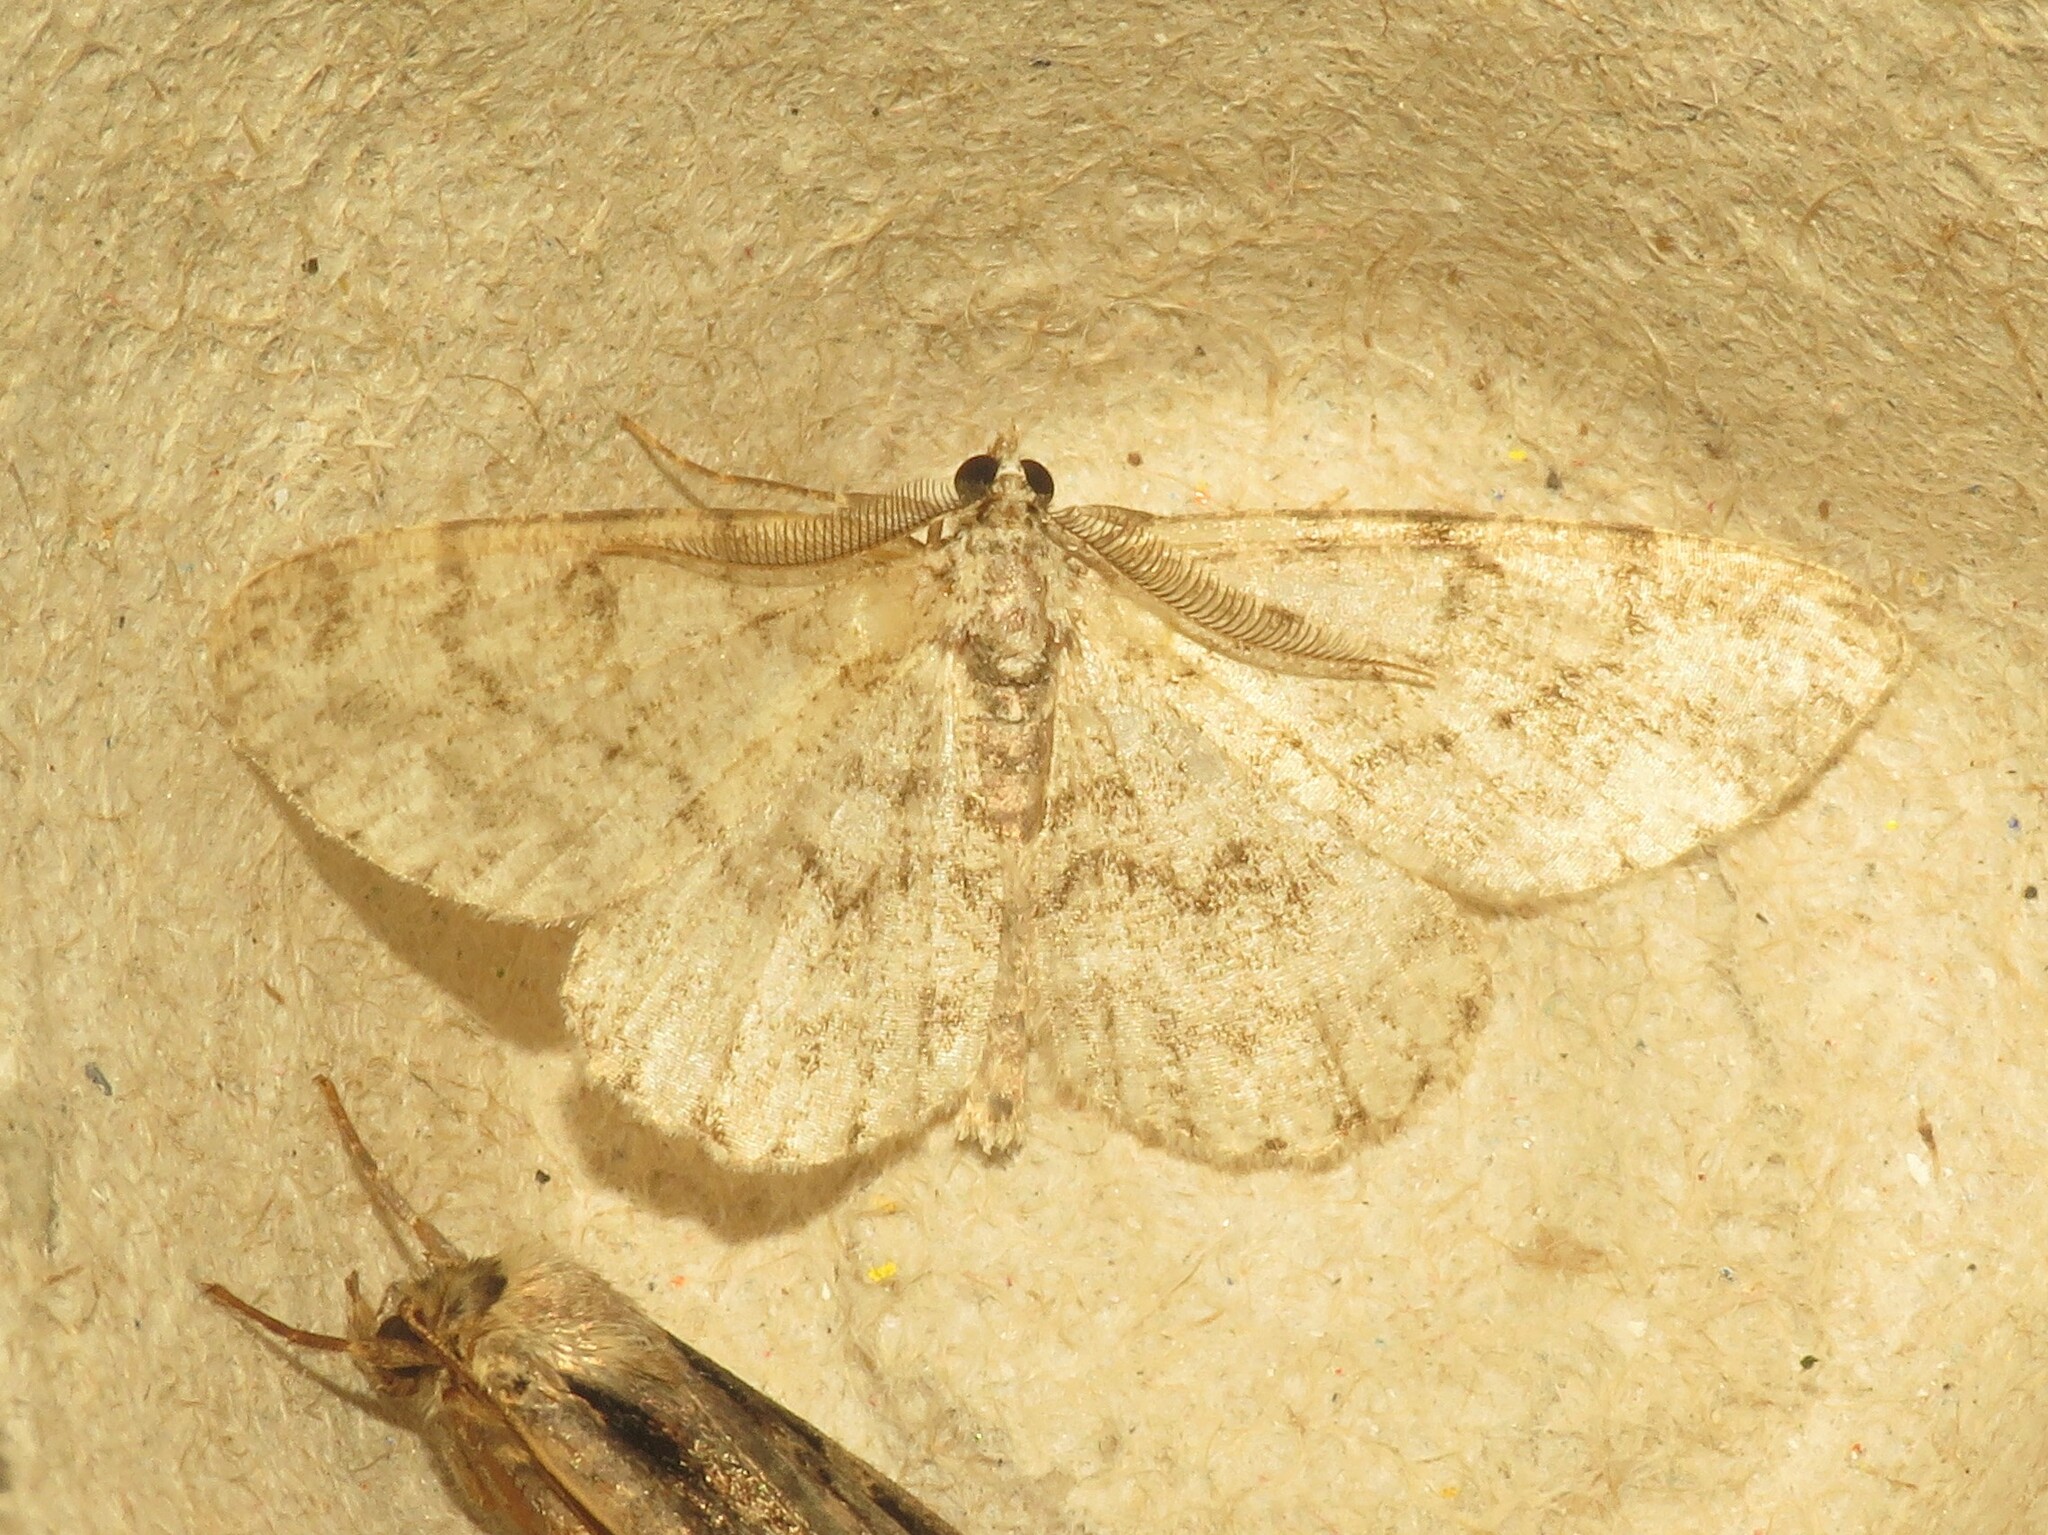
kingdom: Animalia
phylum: Arthropoda
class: Insecta
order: Lepidoptera
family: Geometridae
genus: Protoboarmia
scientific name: Protoboarmia porcelaria
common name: Porcelain gray
